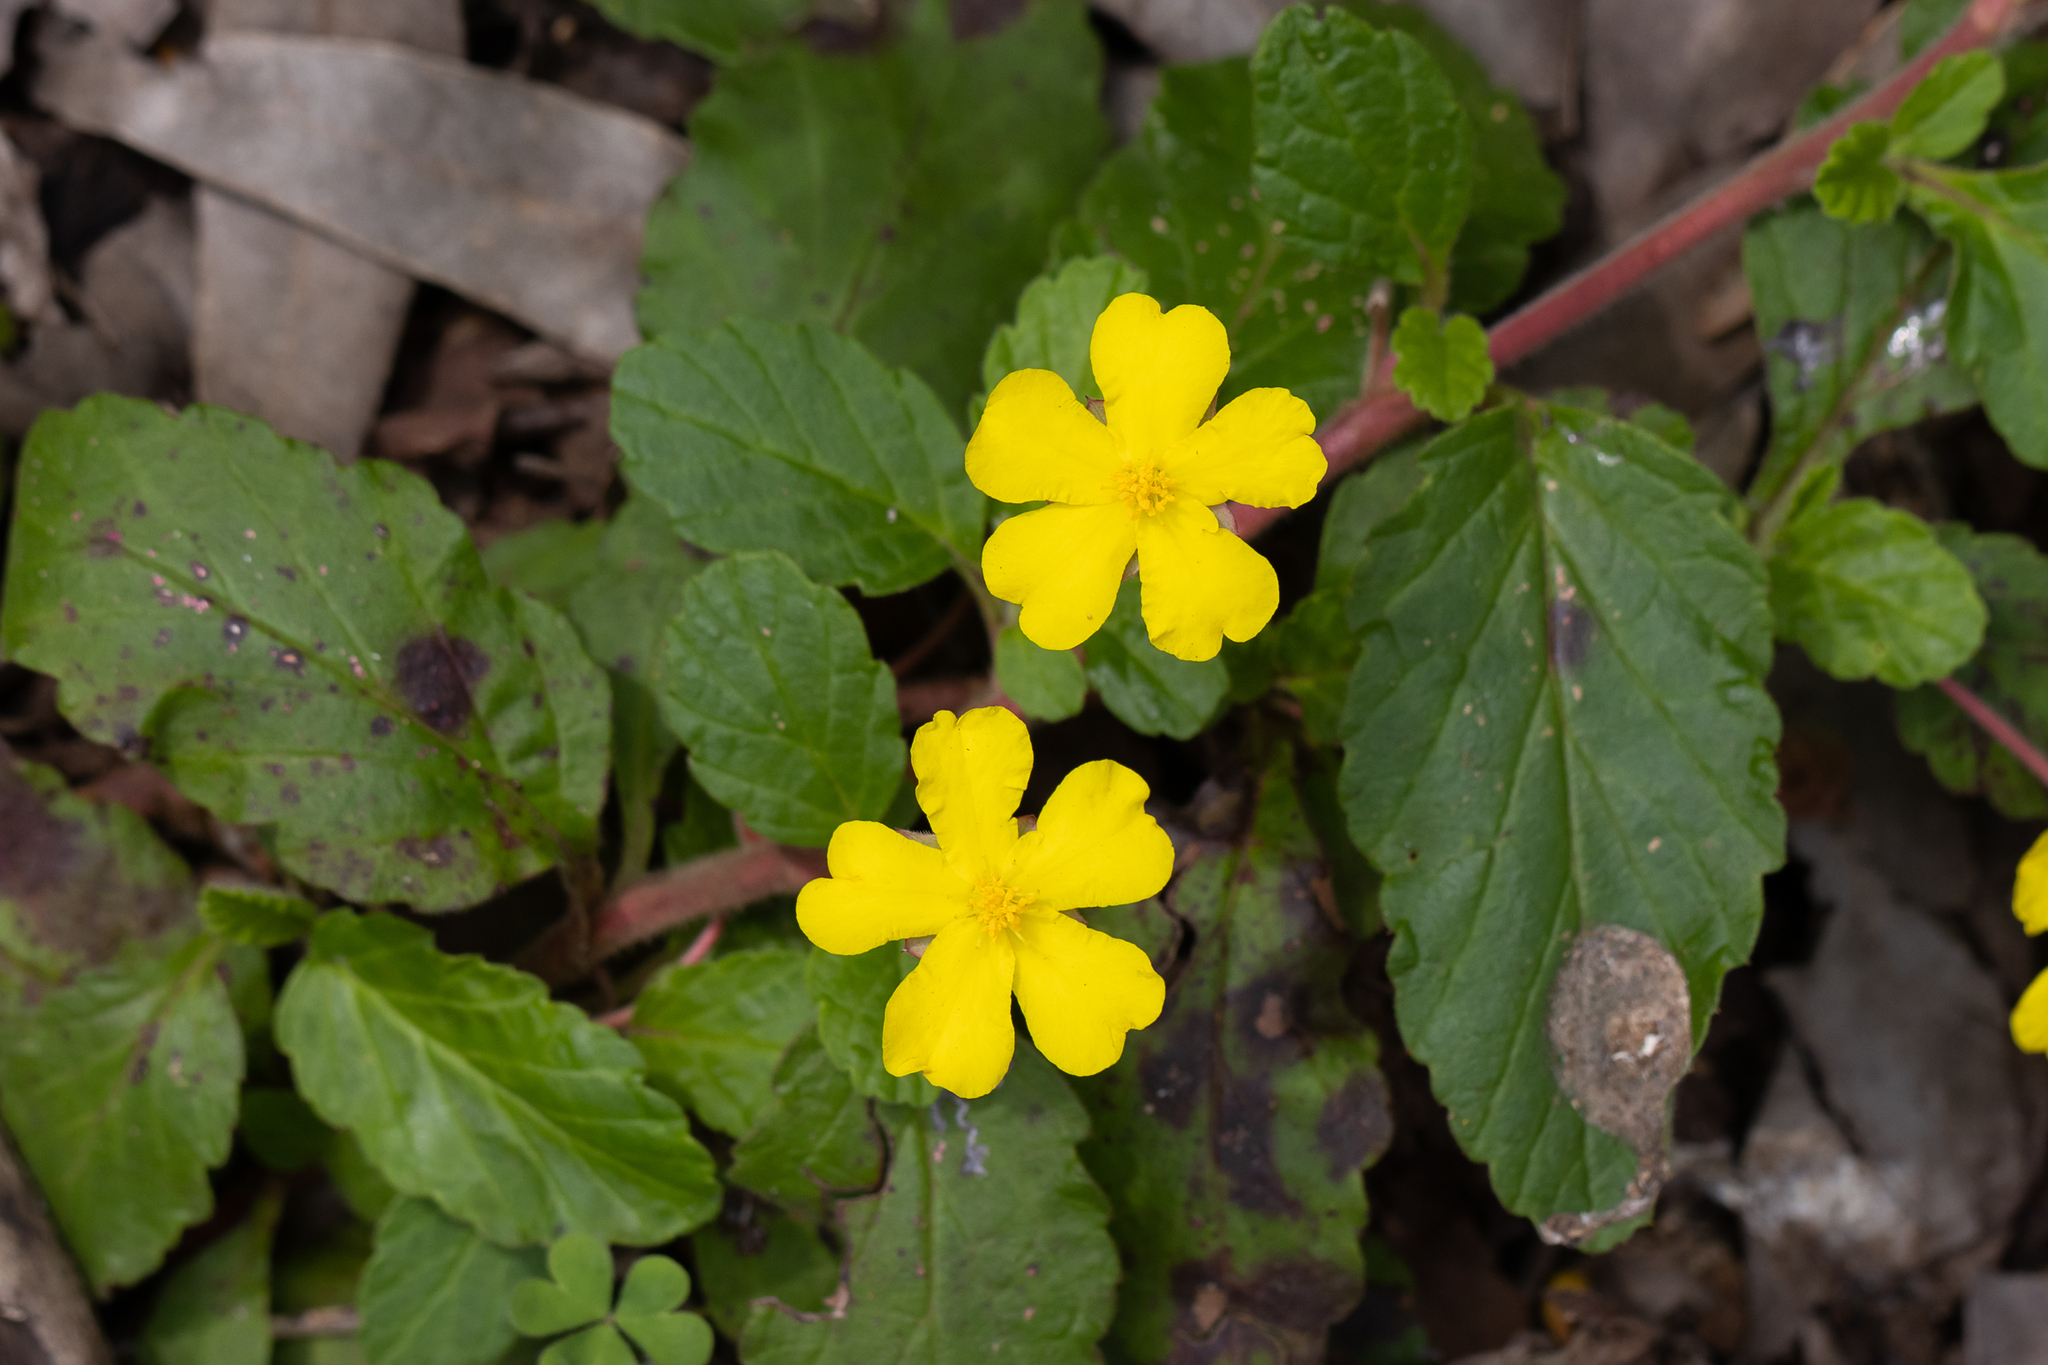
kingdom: Plantae
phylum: Tracheophyta
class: Magnoliopsida
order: Dilleniales
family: Dilleniaceae
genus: Hibbertia
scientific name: Hibbertia grossulariifolia
